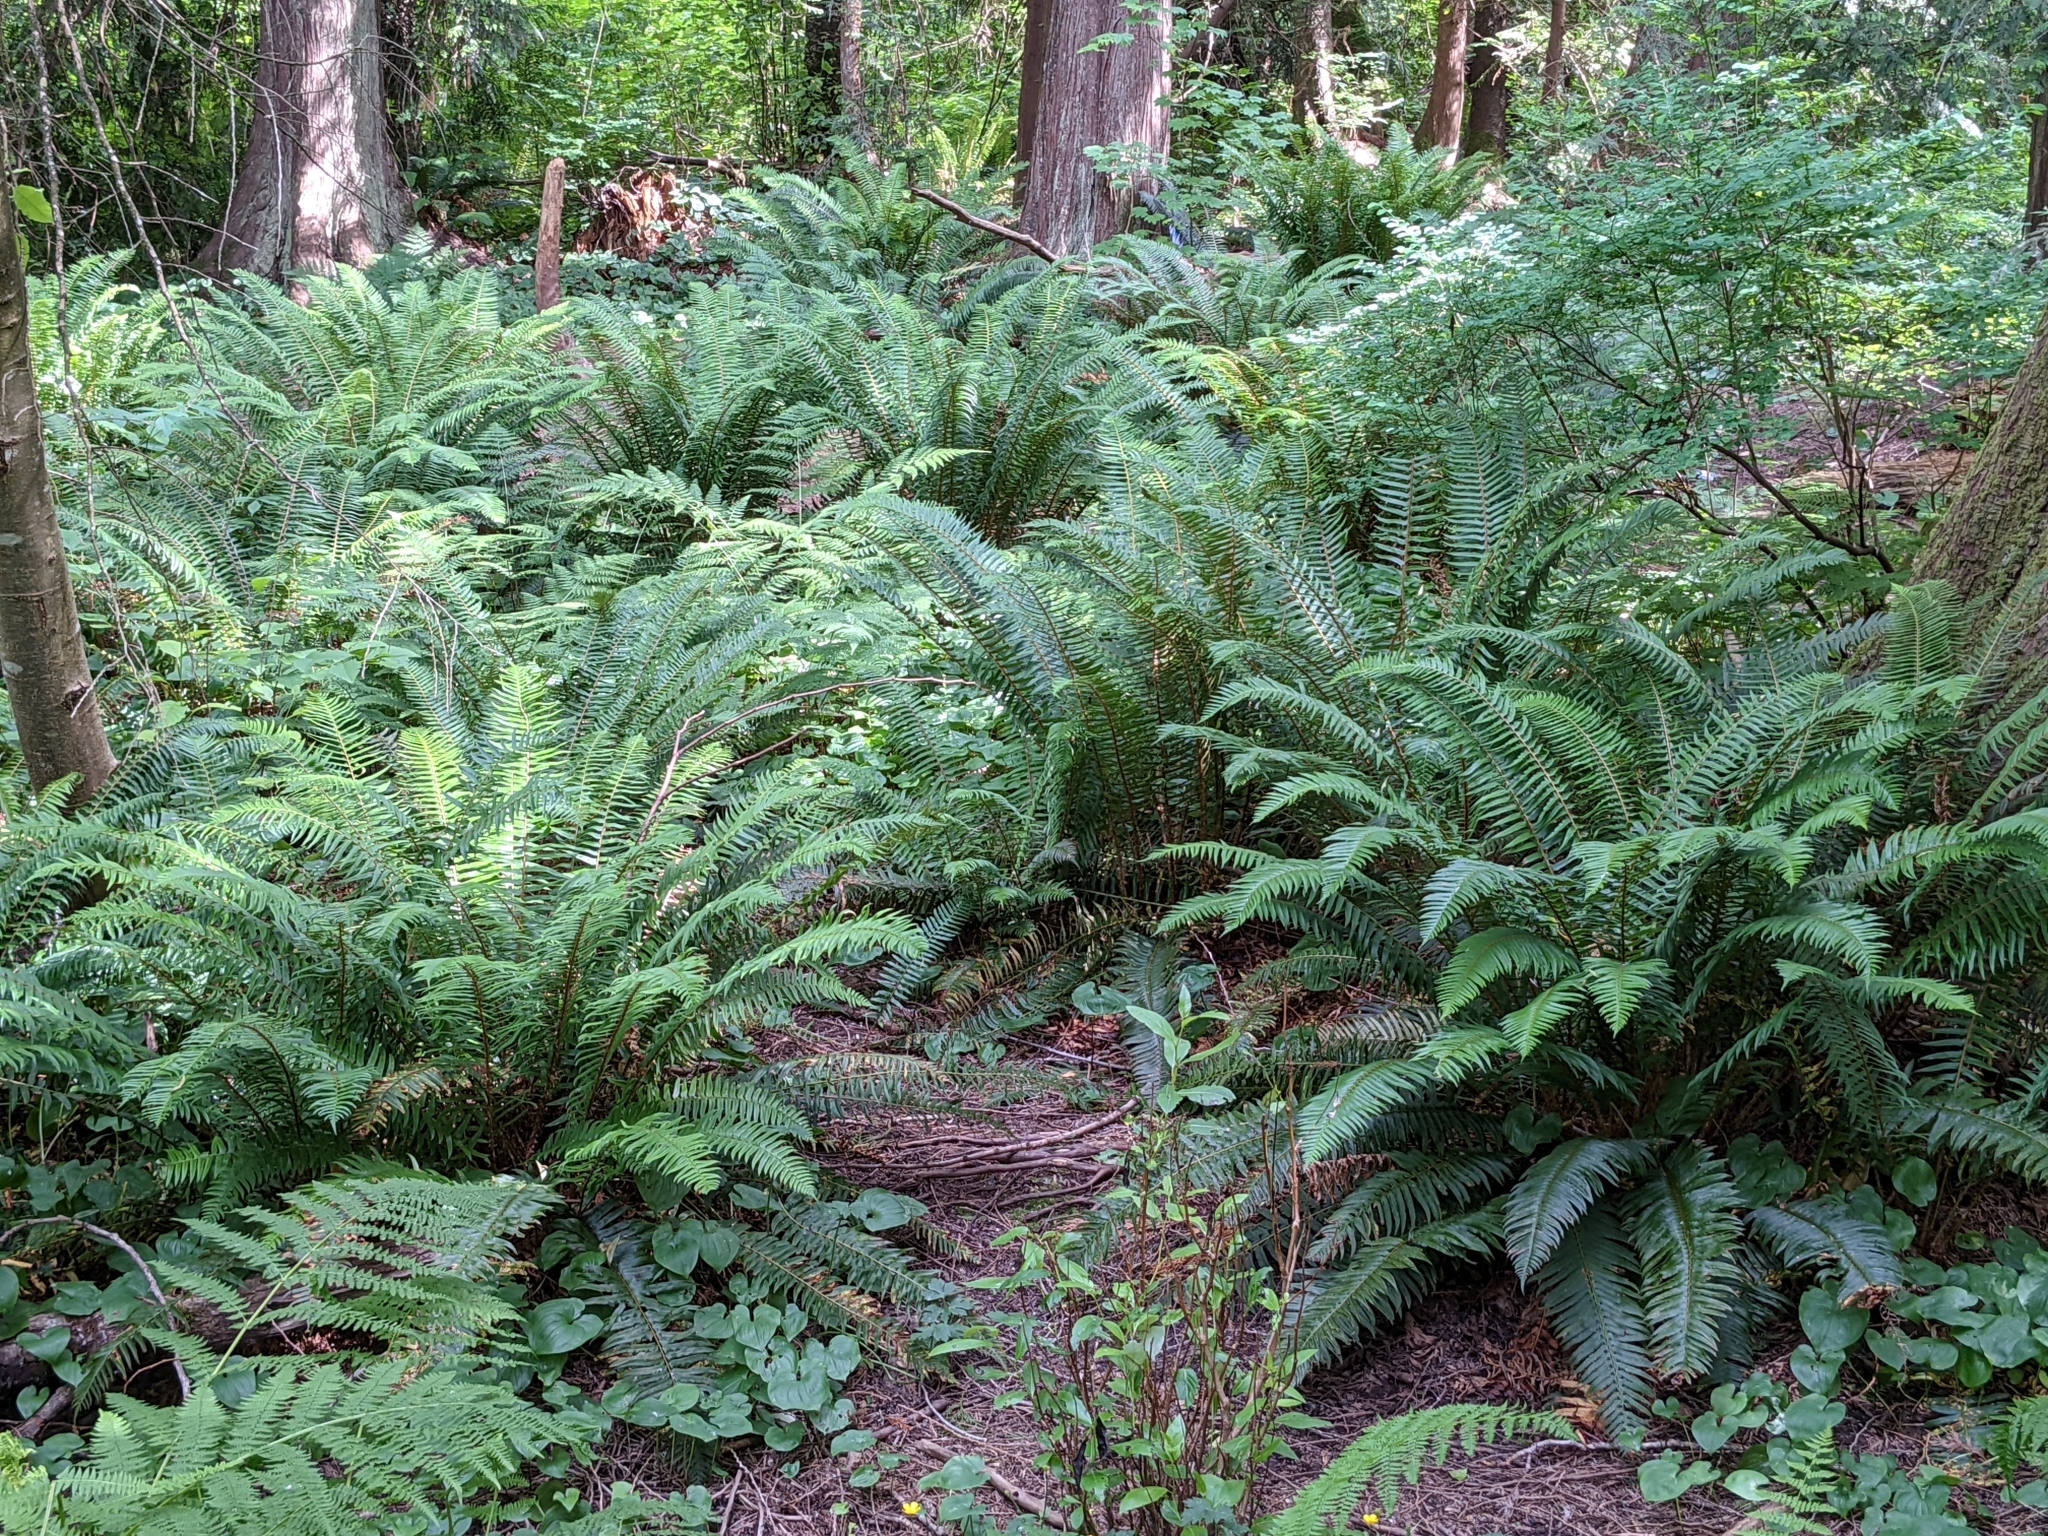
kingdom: Plantae
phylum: Tracheophyta
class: Polypodiopsida
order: Polypodiales
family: Dryopteridaceae
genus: Polystichum
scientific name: Polystichum munitum
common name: Western sword-fern
